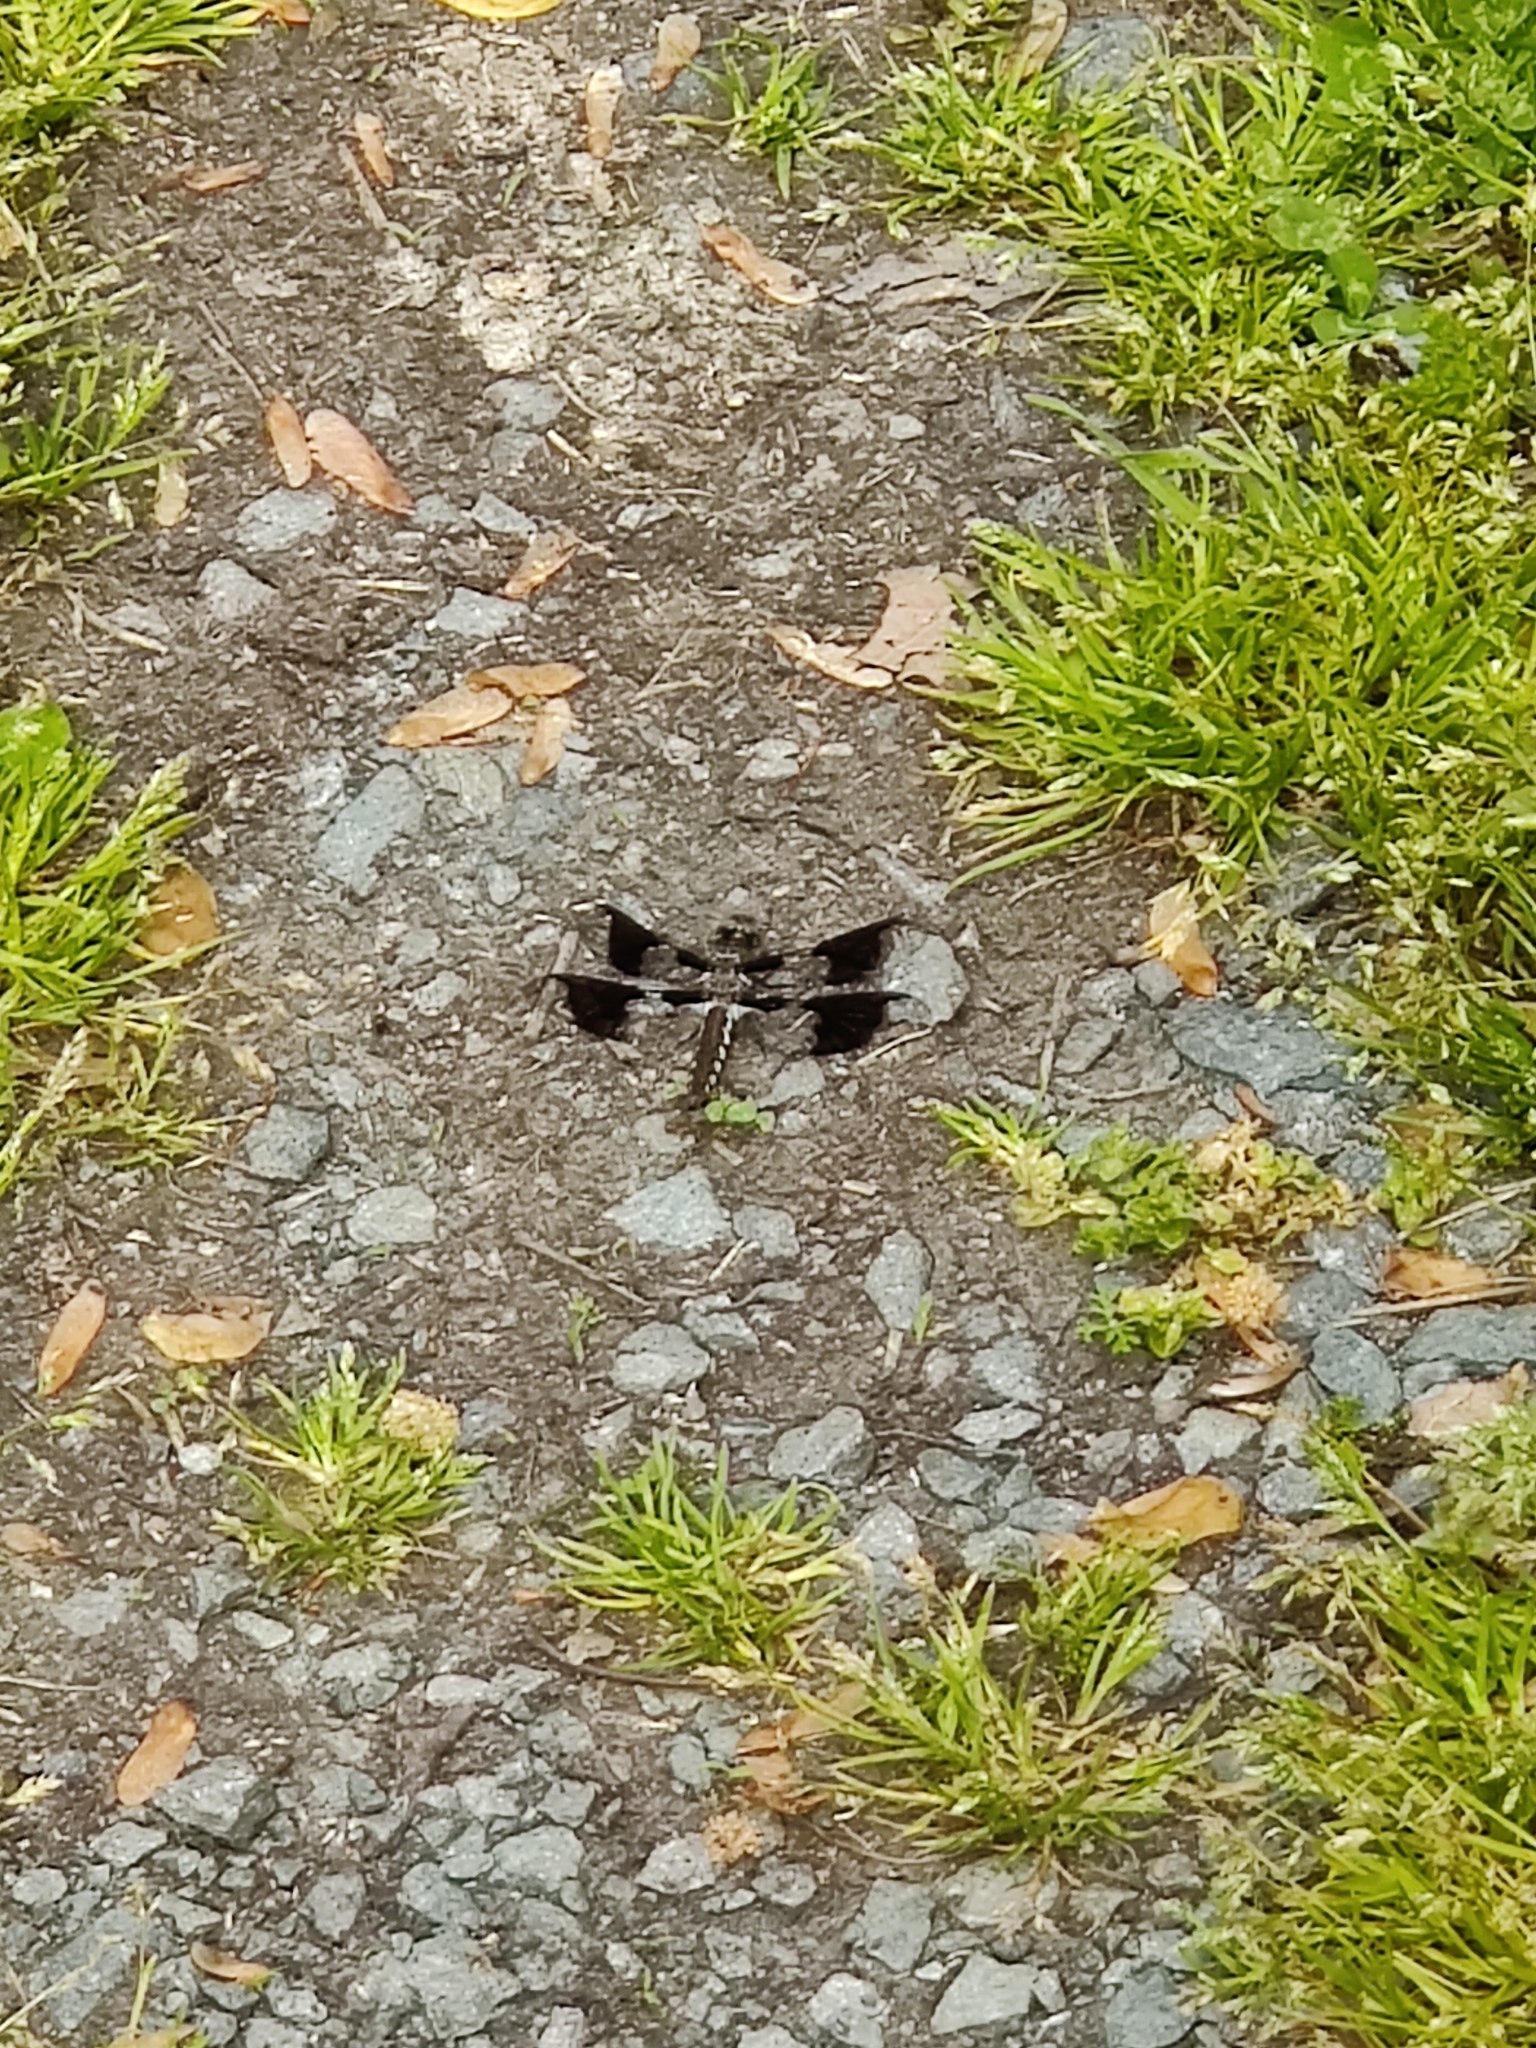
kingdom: Animalia
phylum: Arthropoda
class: Insecta
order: Odonata
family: Libellulidae
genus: Plathemis
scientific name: Plathemis lydia
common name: Common whitetail
